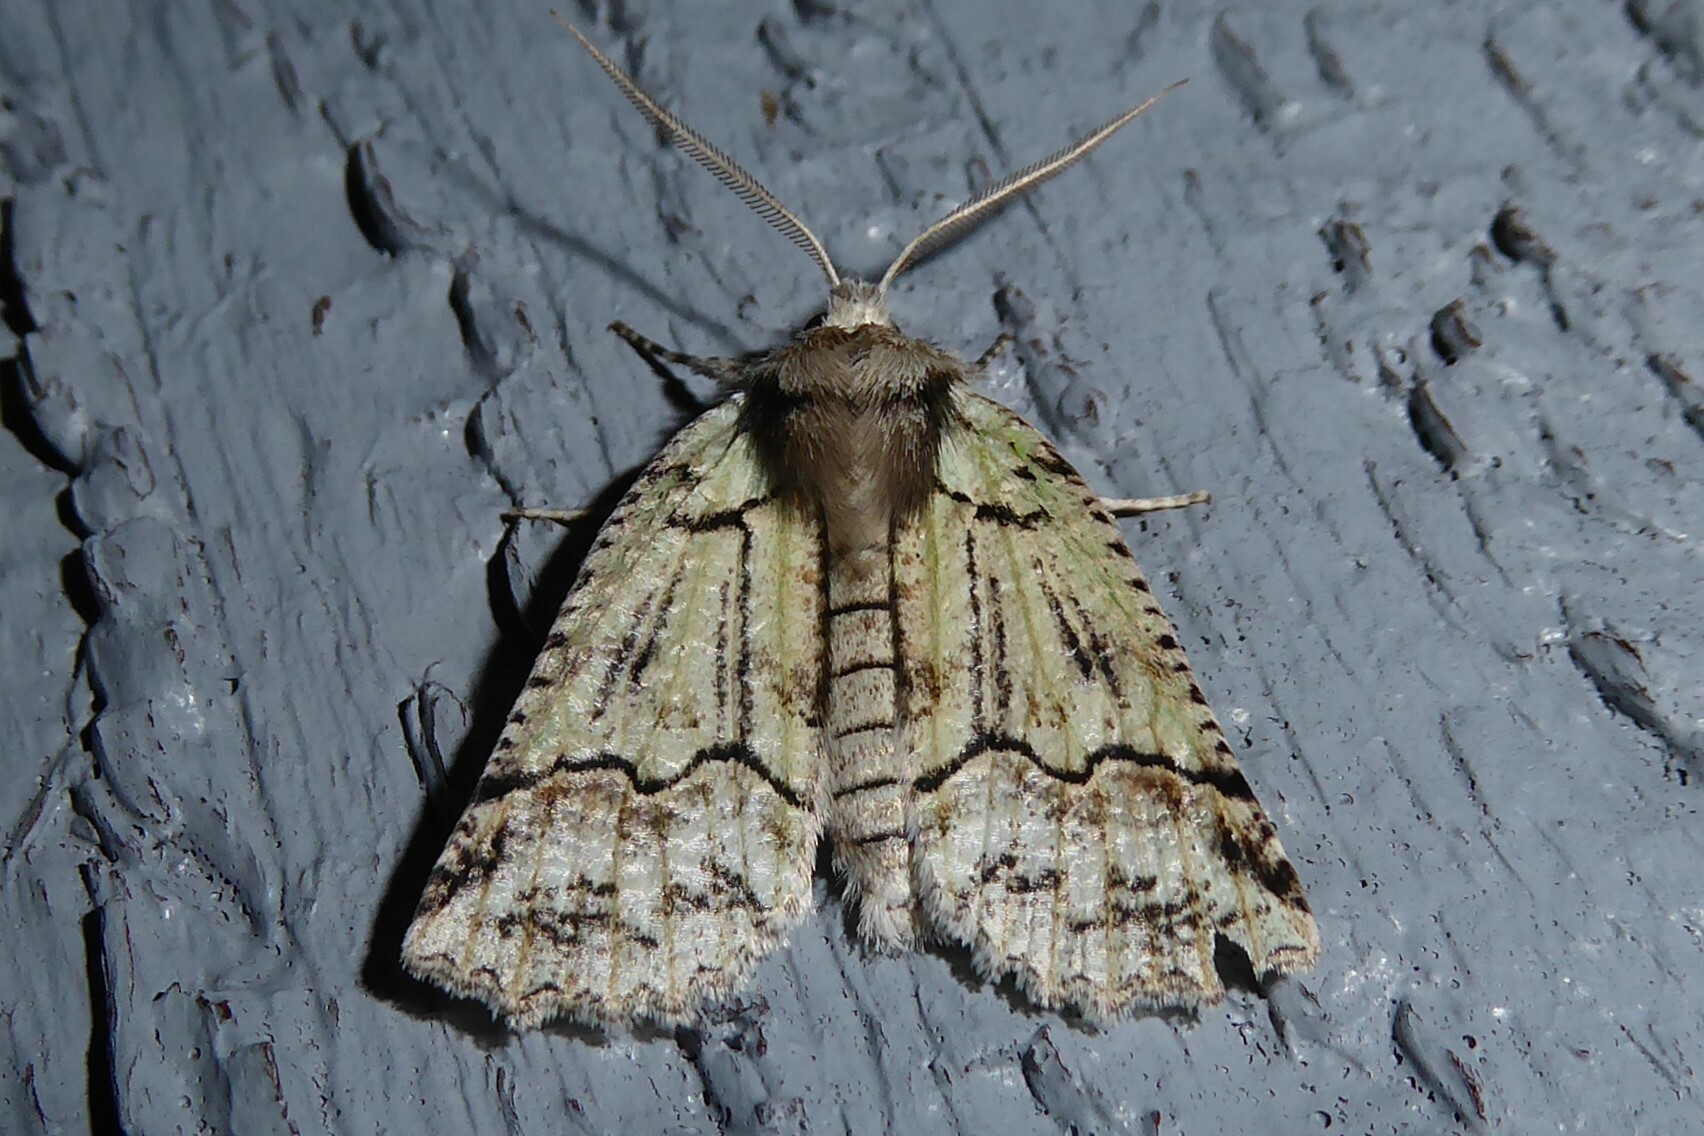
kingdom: Animalia
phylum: Arthropoda
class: Insecta
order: Lepidoptera
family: Geometridae
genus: Declana
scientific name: Declana floccosa
